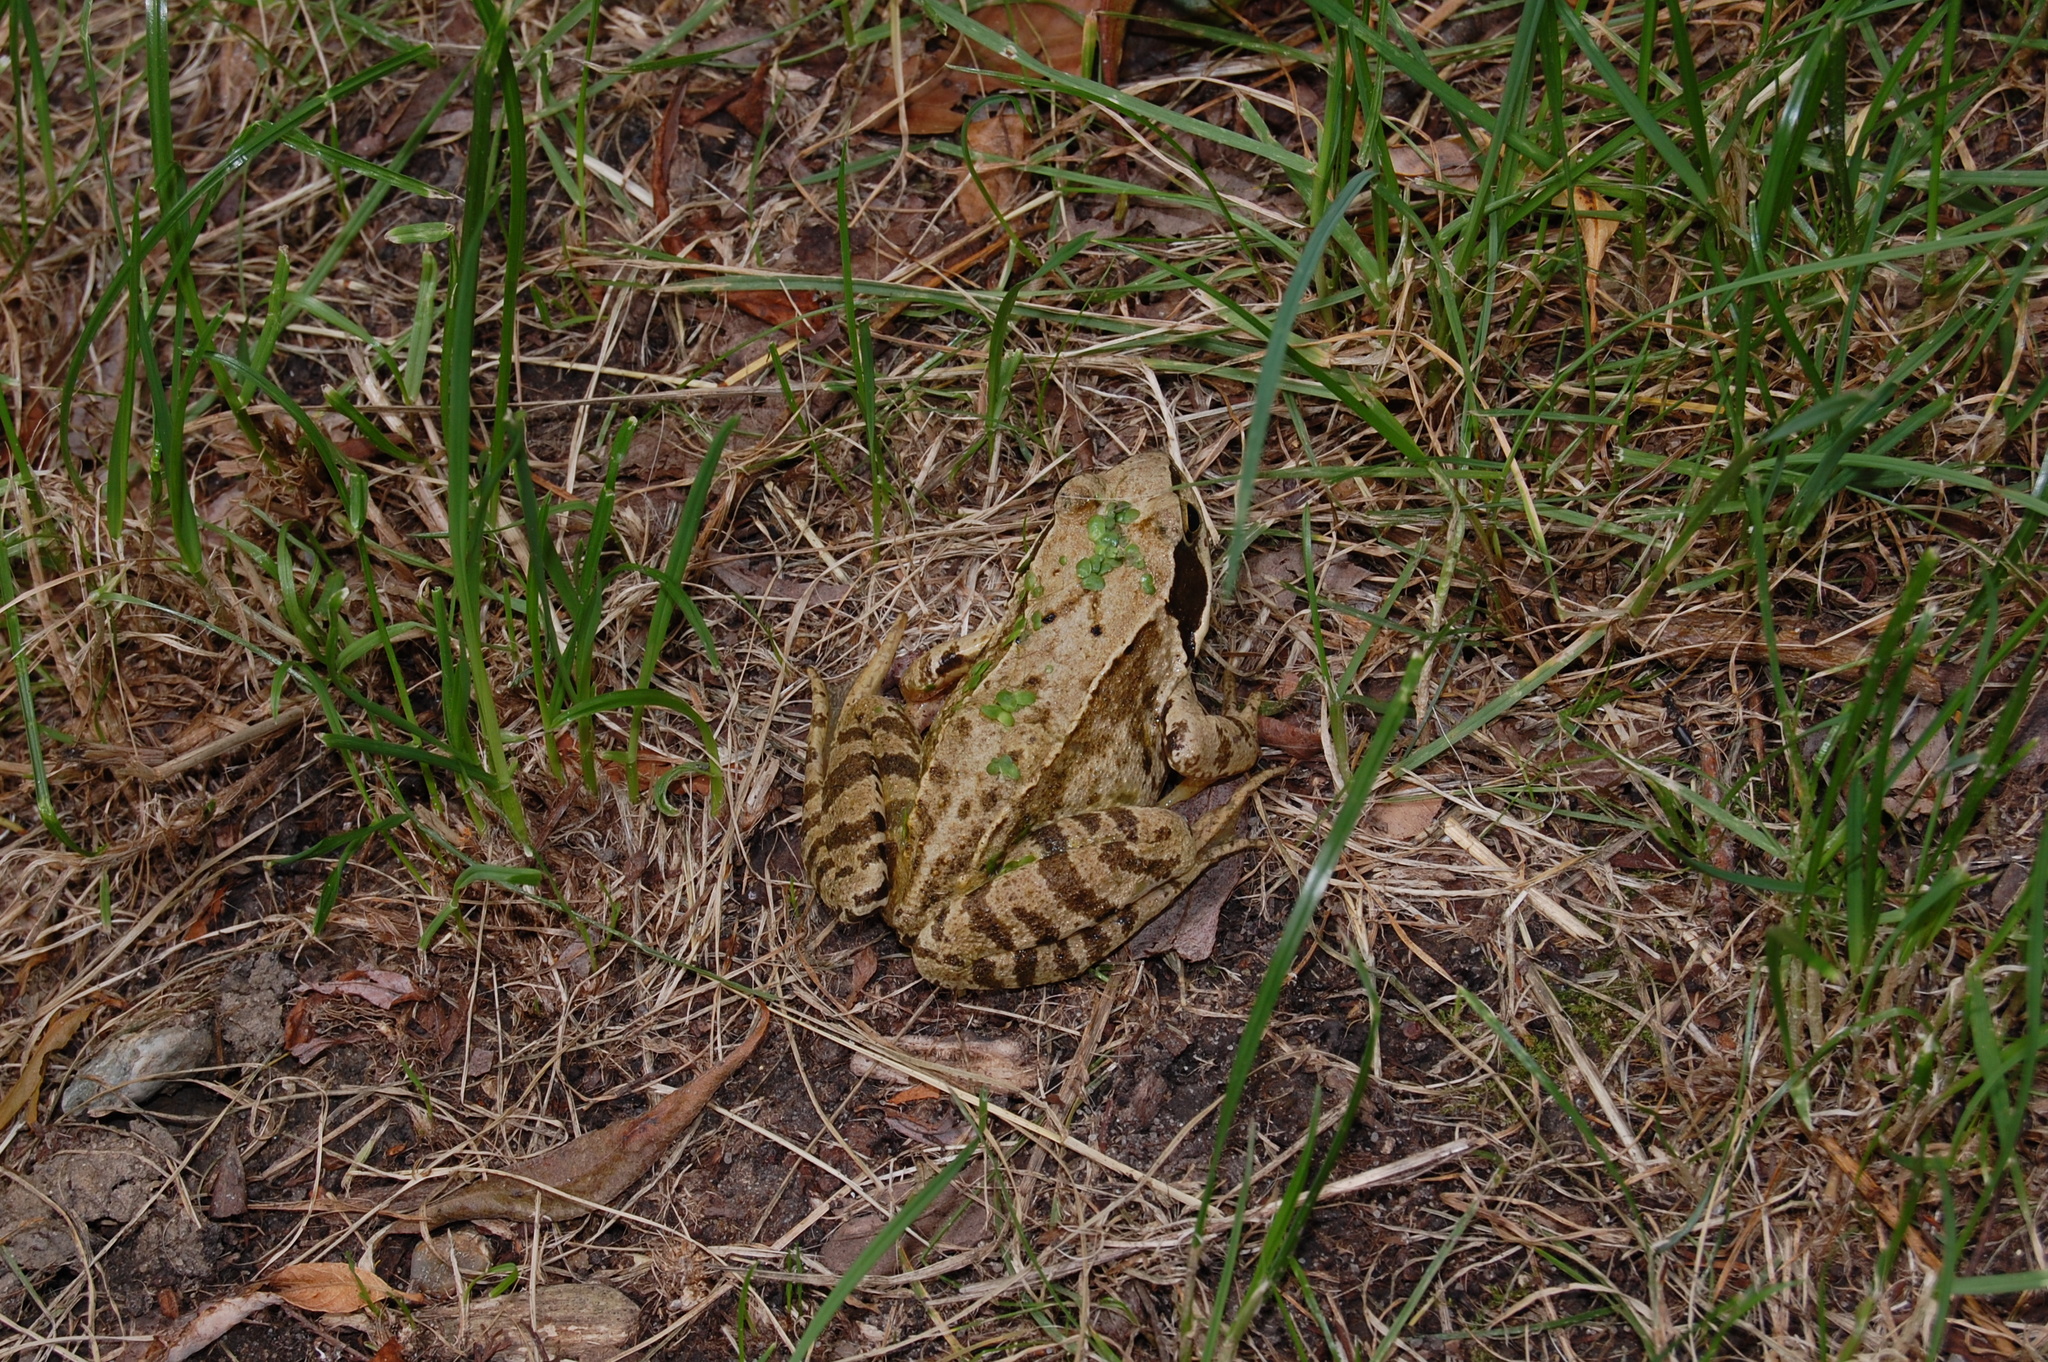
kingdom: Animalia
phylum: Chordata
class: Amphibia
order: Anura
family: Ranidae
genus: Rana
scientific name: Rana temporaria
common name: Common frog
